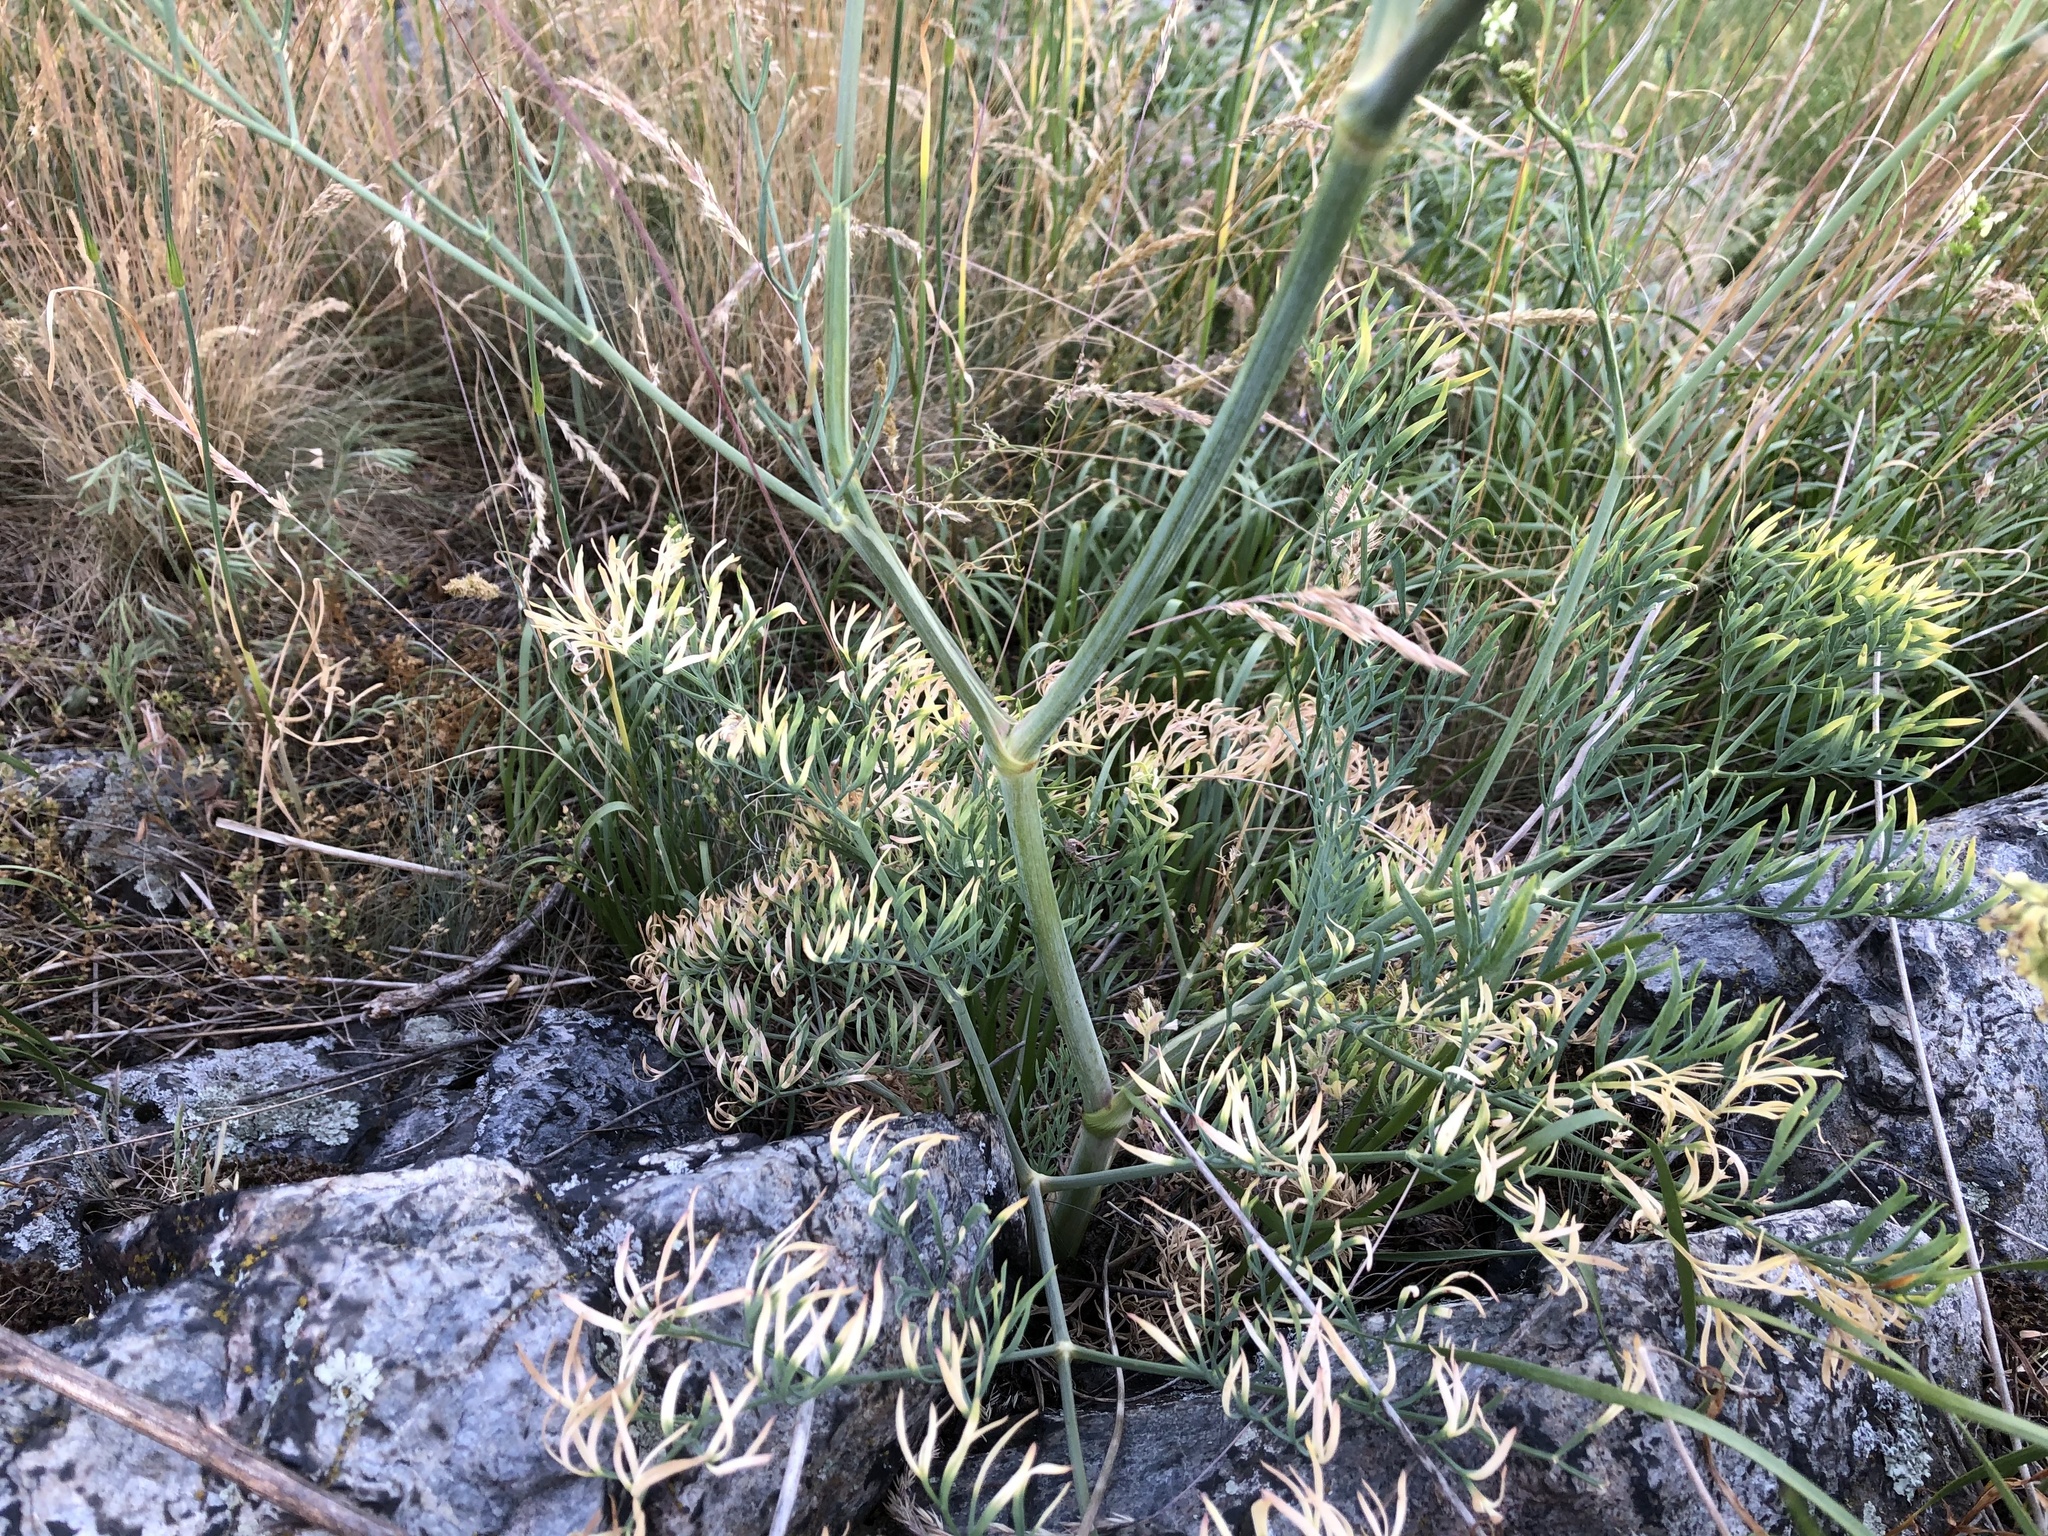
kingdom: Plantae
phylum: Tracheophyta
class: Magnoliopsida
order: Apiales
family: Apiaceae
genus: Seseli
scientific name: Seseli osseum
